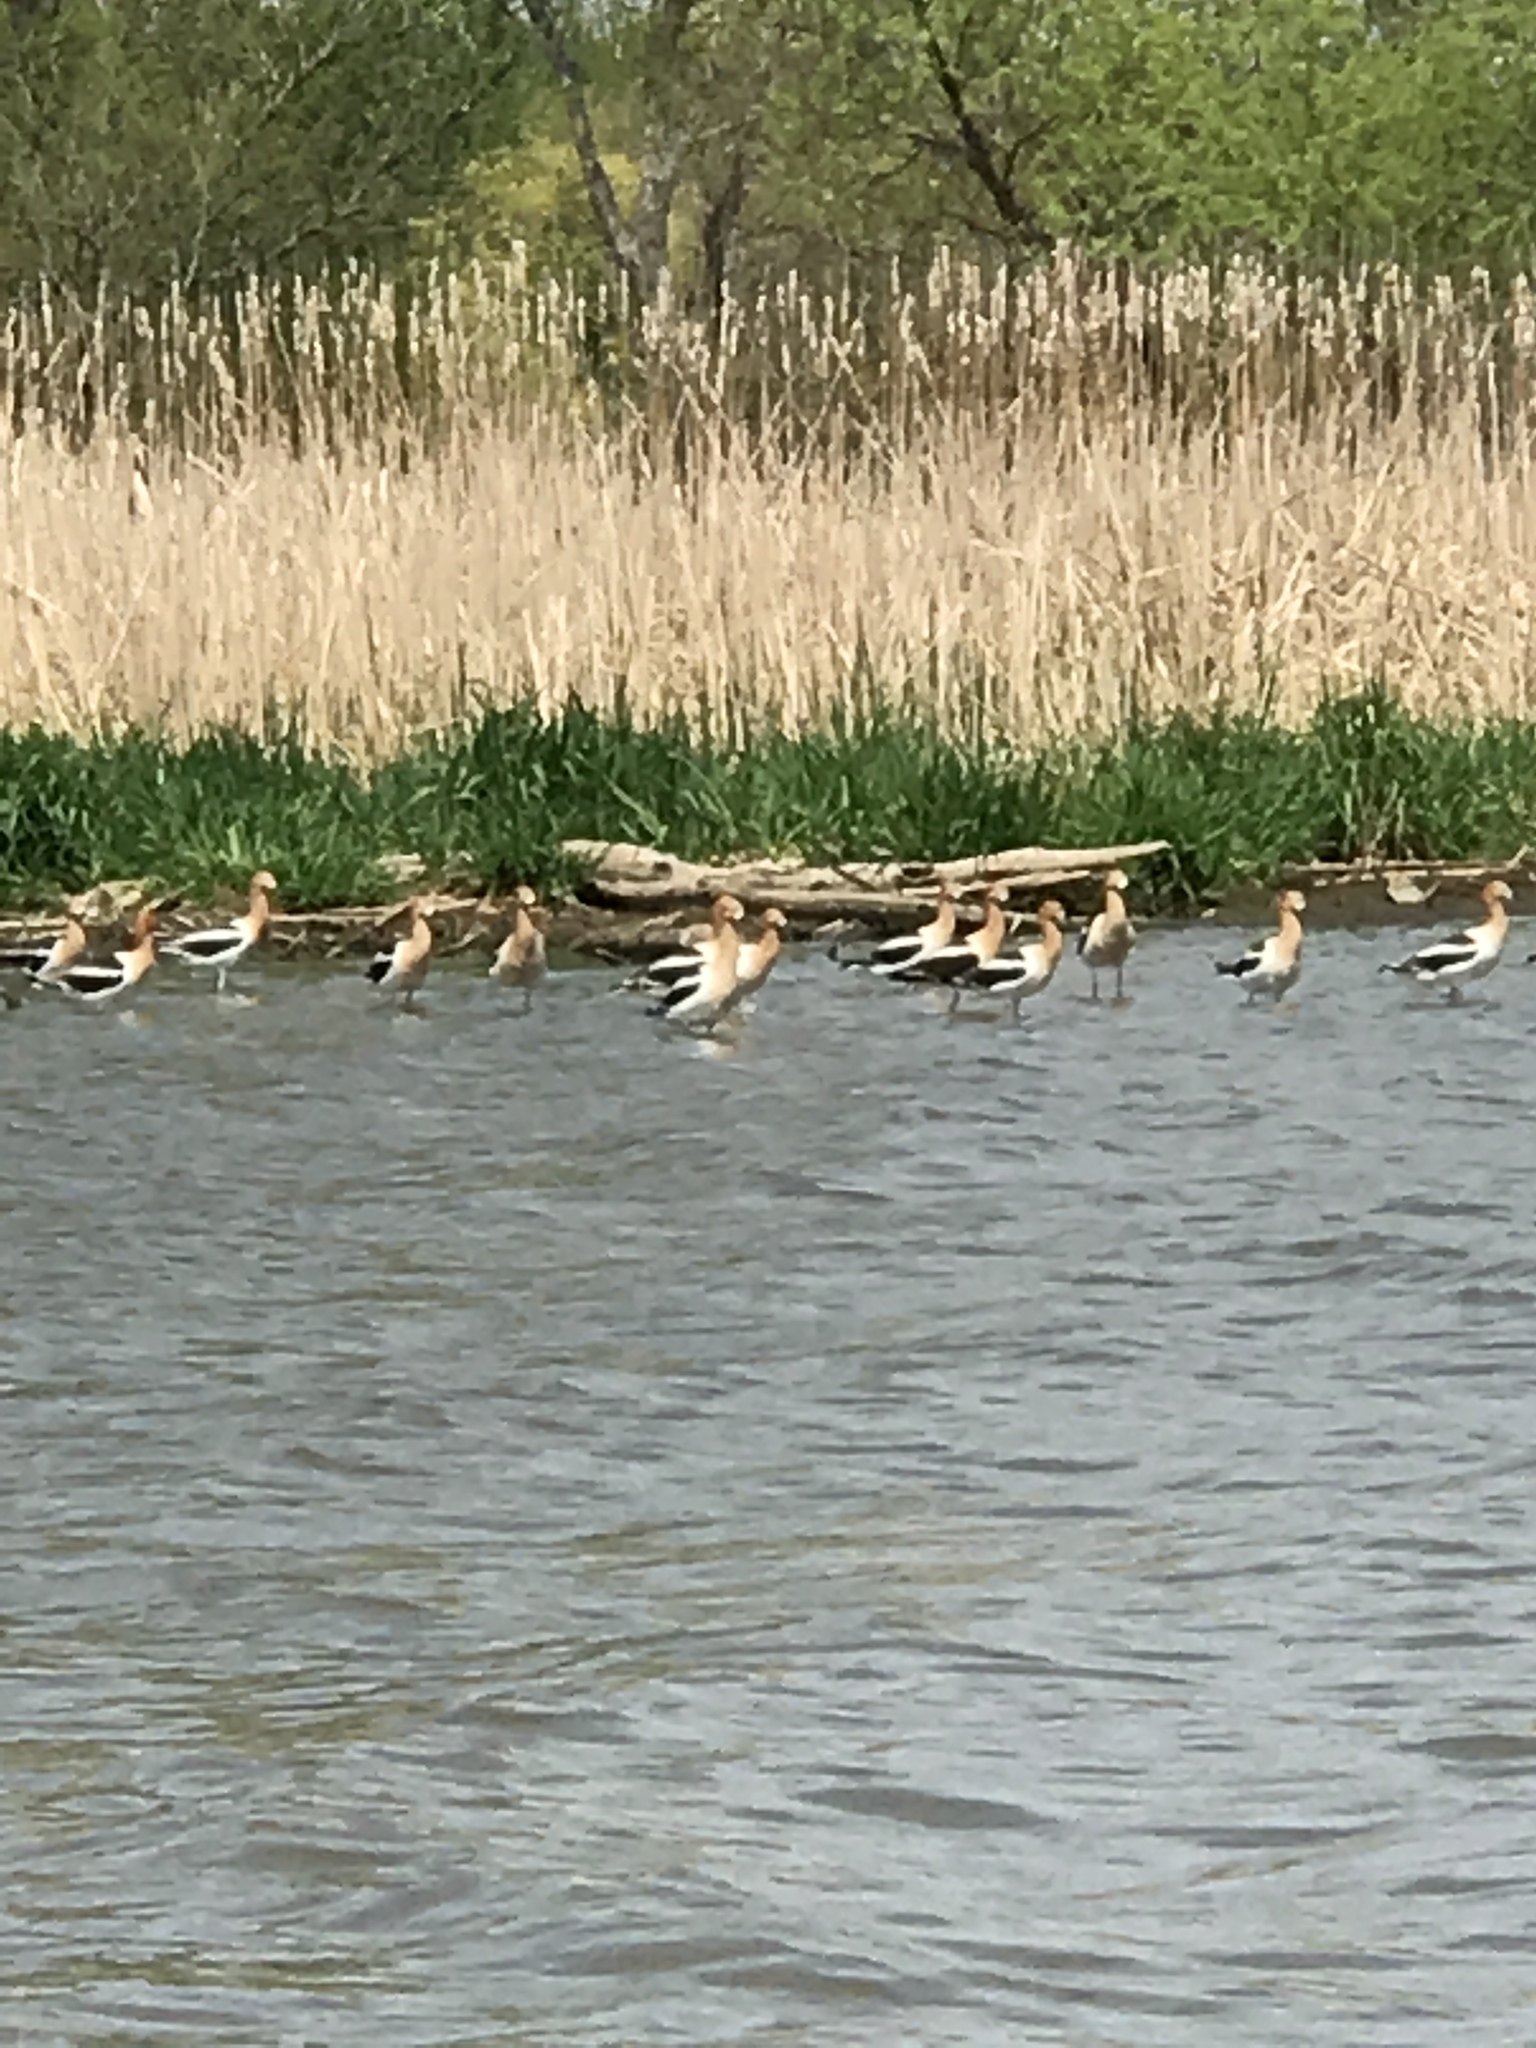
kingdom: Animalia
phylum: Chordata
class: Aves
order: Charadriiformes
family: Recurvirostridae
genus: Recurvirostra
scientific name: Recurvirostra americana
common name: American avocet
